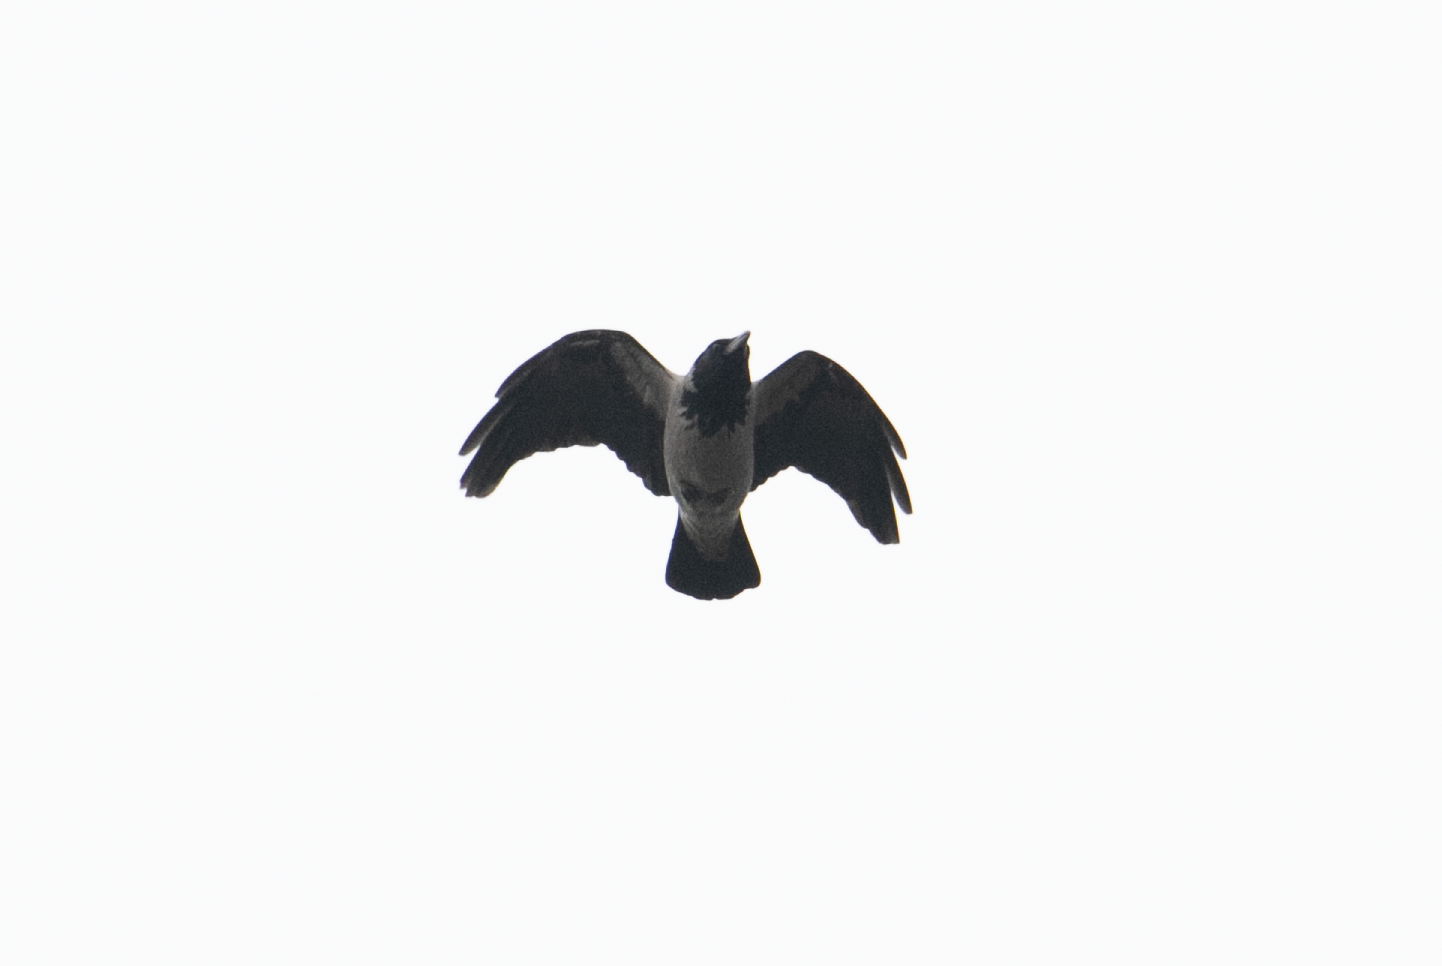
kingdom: Animalia
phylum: Chordata
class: Aves
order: Passeriformes
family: Corvidae
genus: Corvus
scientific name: Corvus cornix
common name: Hooded crow
